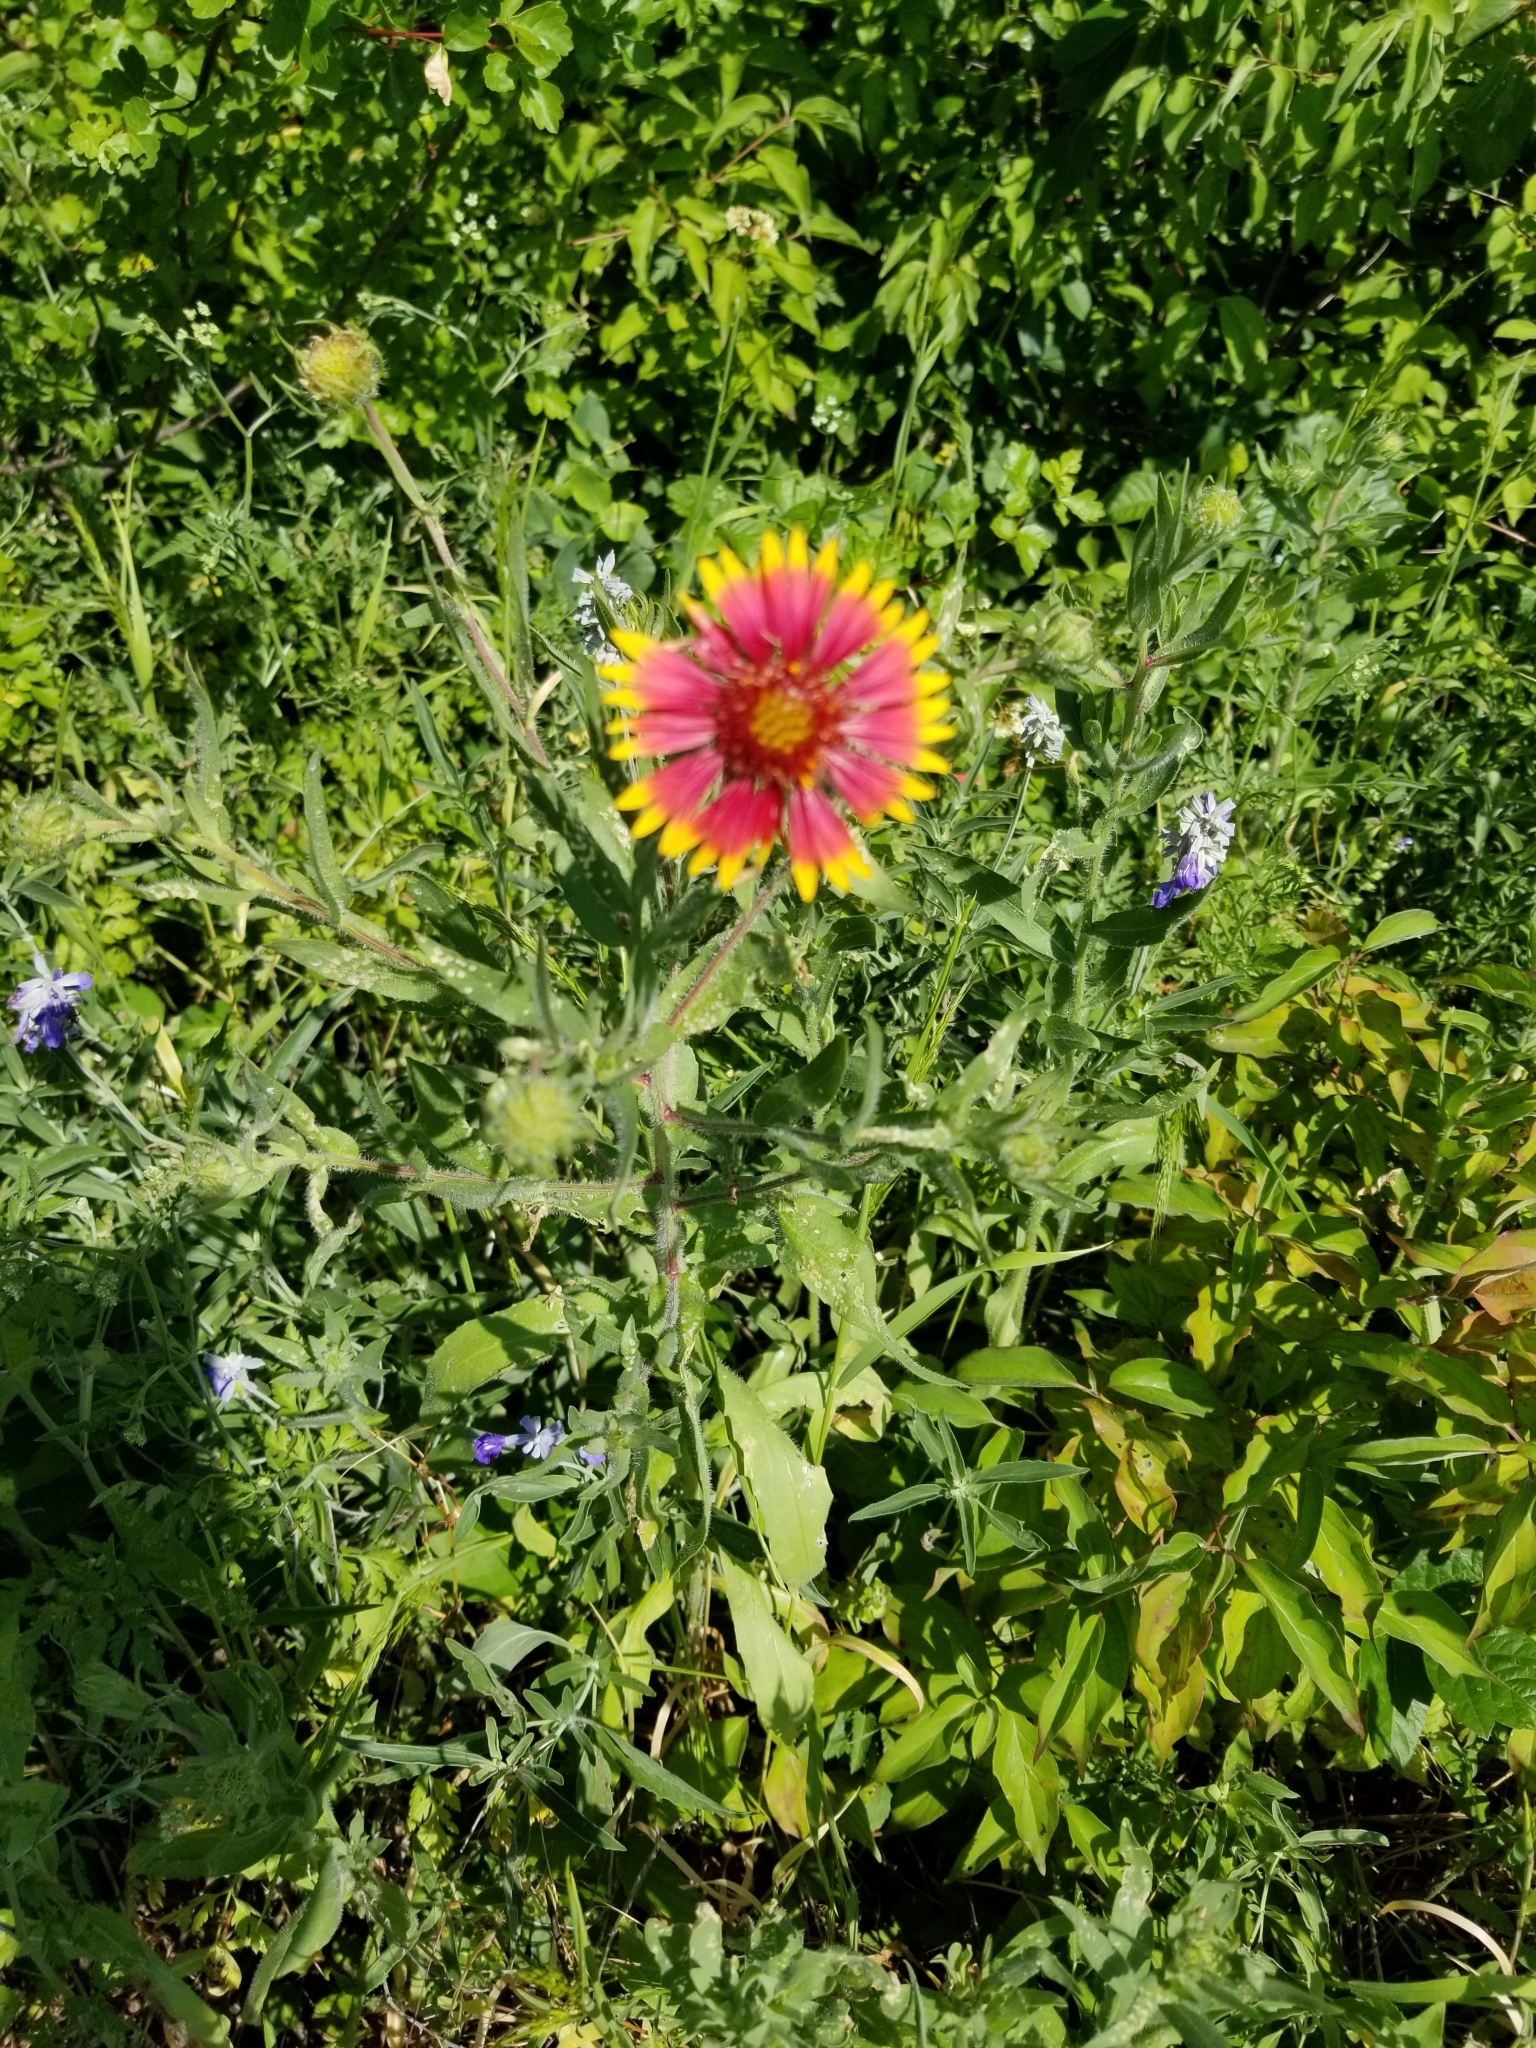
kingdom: Plantae
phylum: Tracheophyta
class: Magnoliopsida
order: Asterales
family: Asteraceae
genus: Gaillardia
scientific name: Gaillardia pulchella
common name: Firewheel
